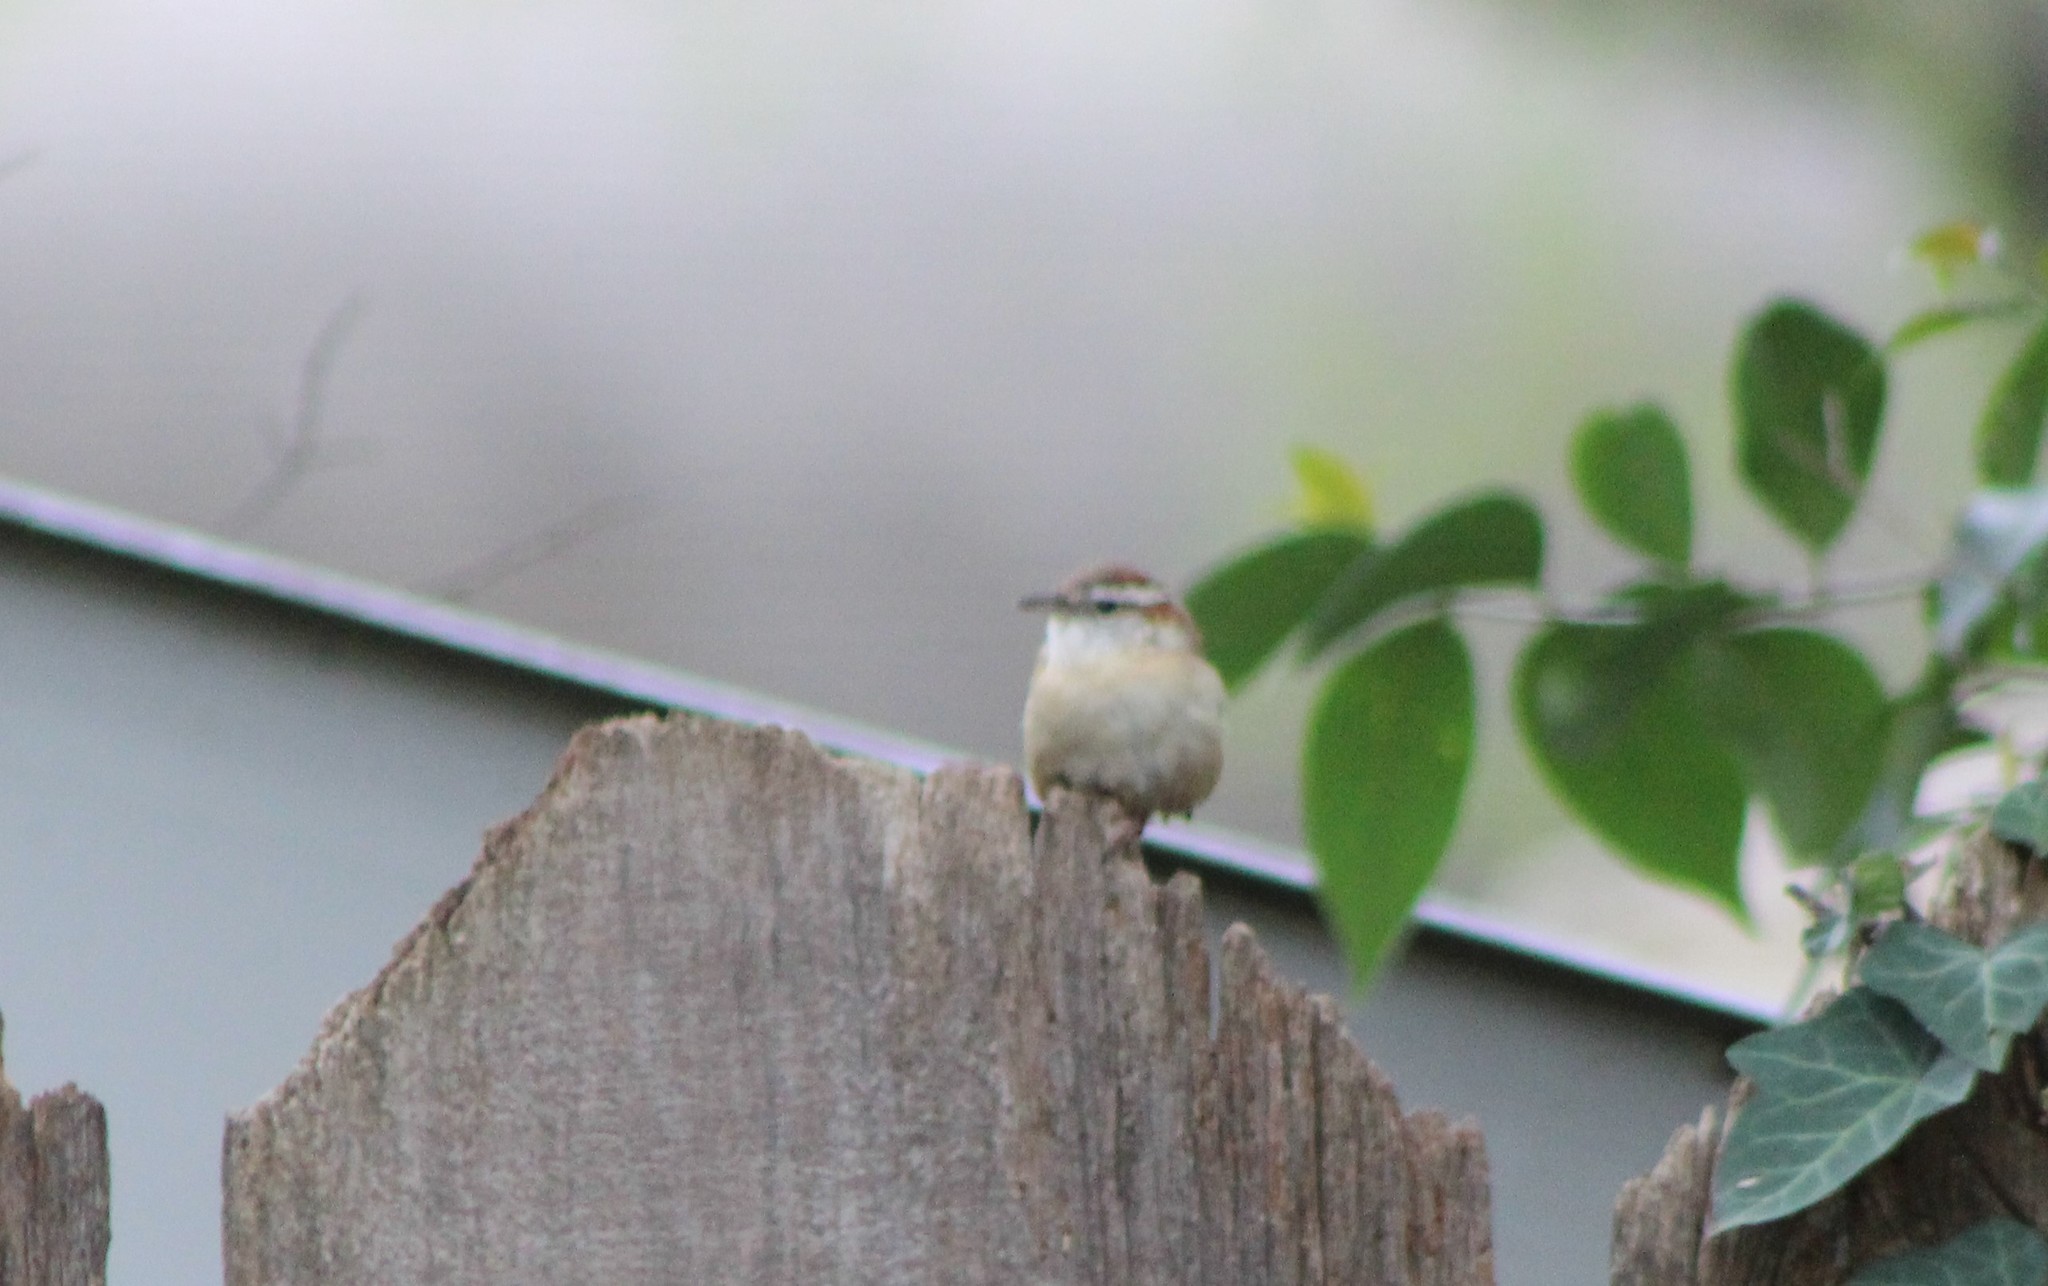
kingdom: Animalia
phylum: Chordata
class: Aves
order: Passeriformes
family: Troglodytidae
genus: Thryothorus
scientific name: Thryothorus ludovicianus
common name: Carolina wren
